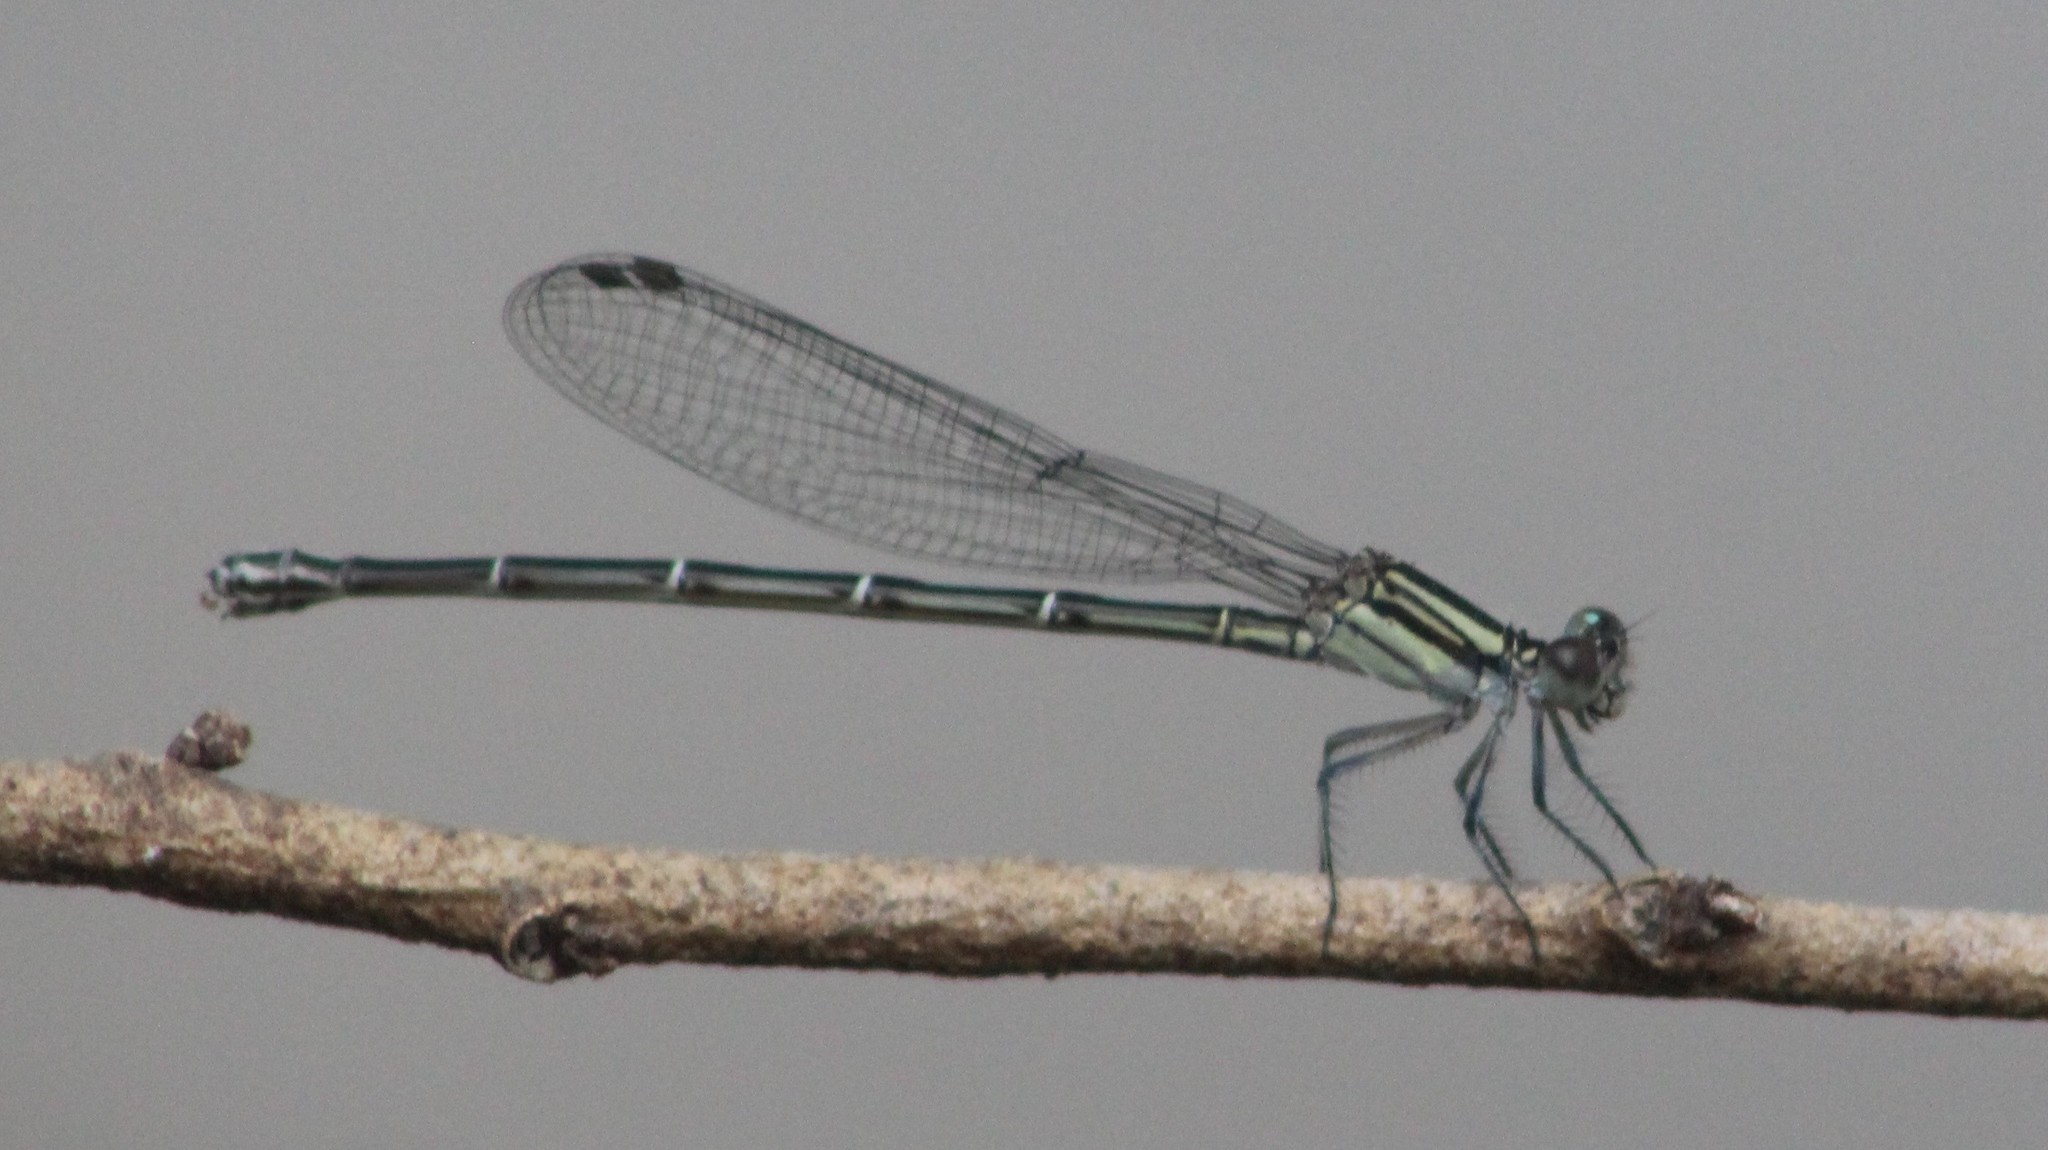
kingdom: Animalia
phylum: Arthropoda
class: Insecta
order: Odonata
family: Coenagrionidae
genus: Argia
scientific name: Argia translata
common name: Dusky dancer
